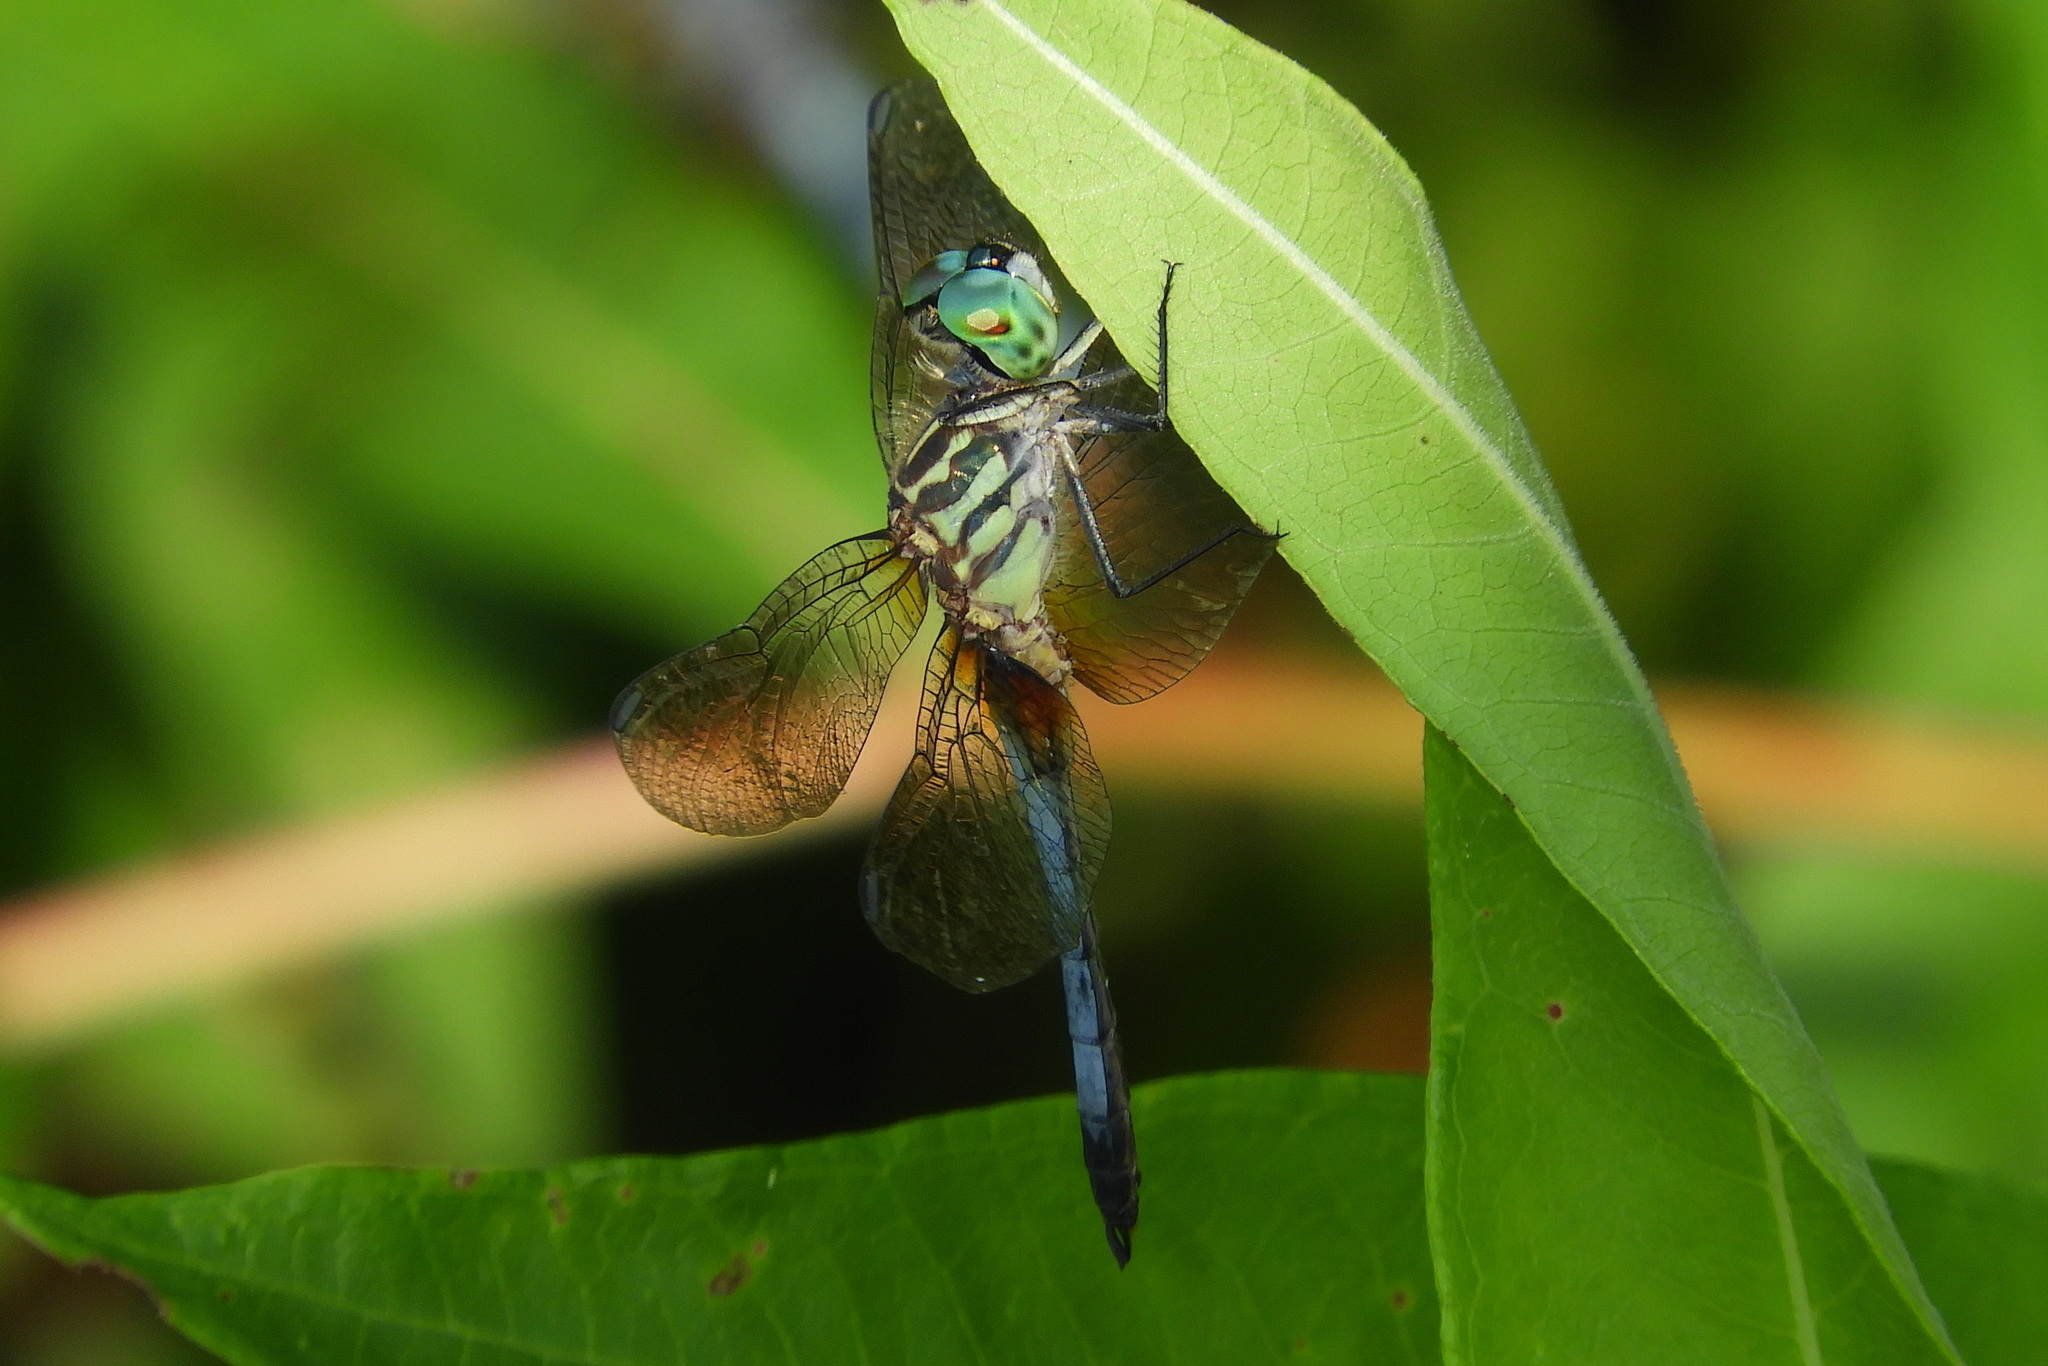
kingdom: Animalia
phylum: Arthropoda
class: Insecta
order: Odonata
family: Libellulidae
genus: Pachydiplax
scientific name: Pachydiplax longipennis
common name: Blue dasher
